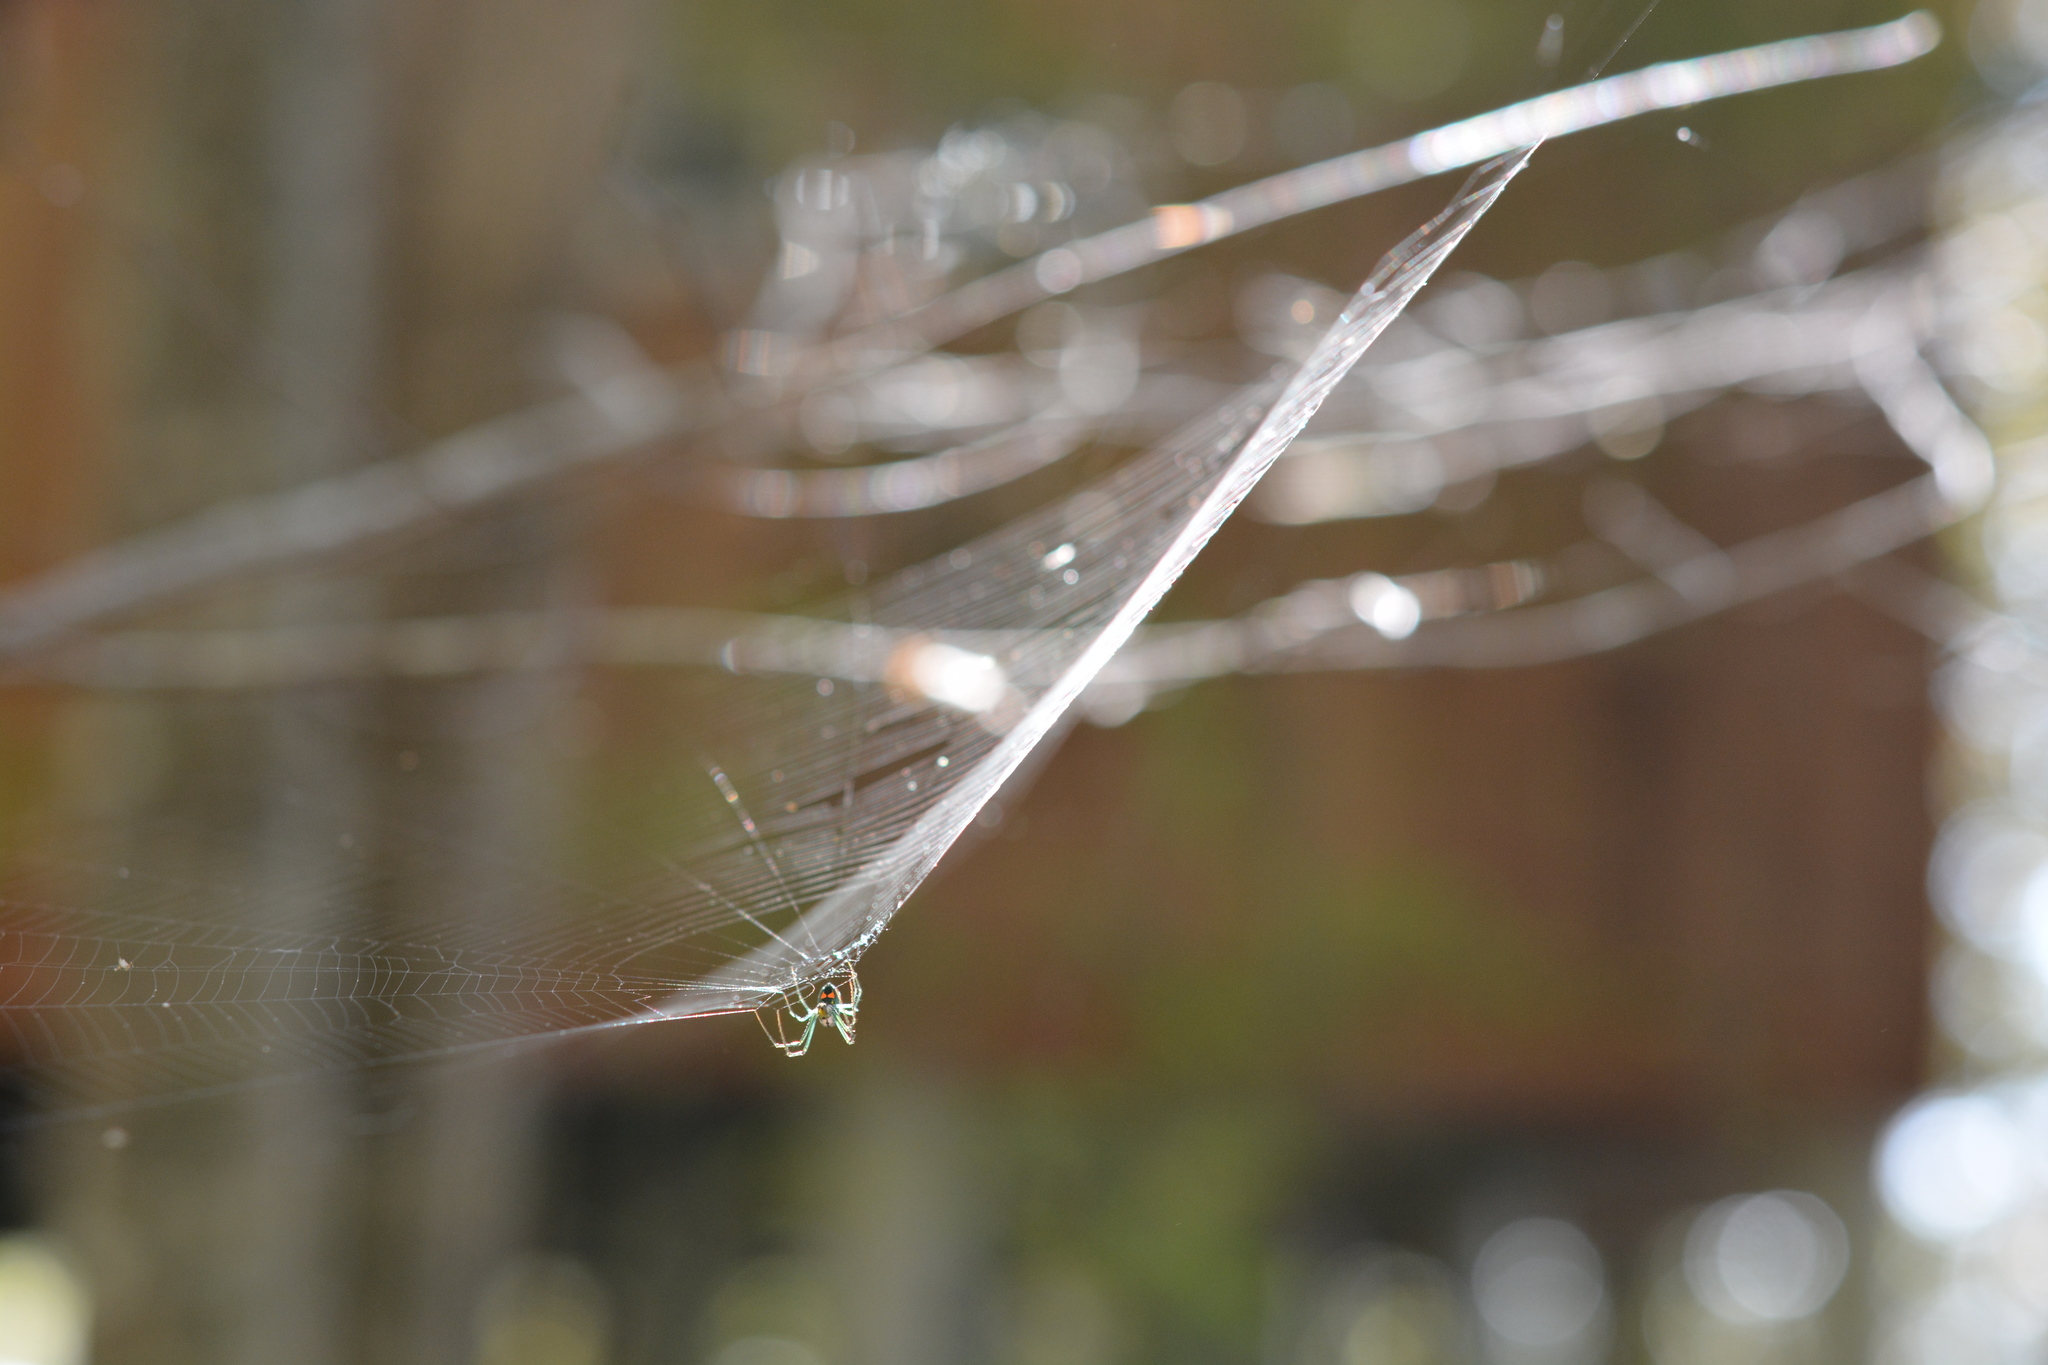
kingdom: Animalia
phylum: Arthropoda
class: Arachnida
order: Araneae
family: Tetragnathidae
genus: Leucauge
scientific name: Leucauge argyrobapta
